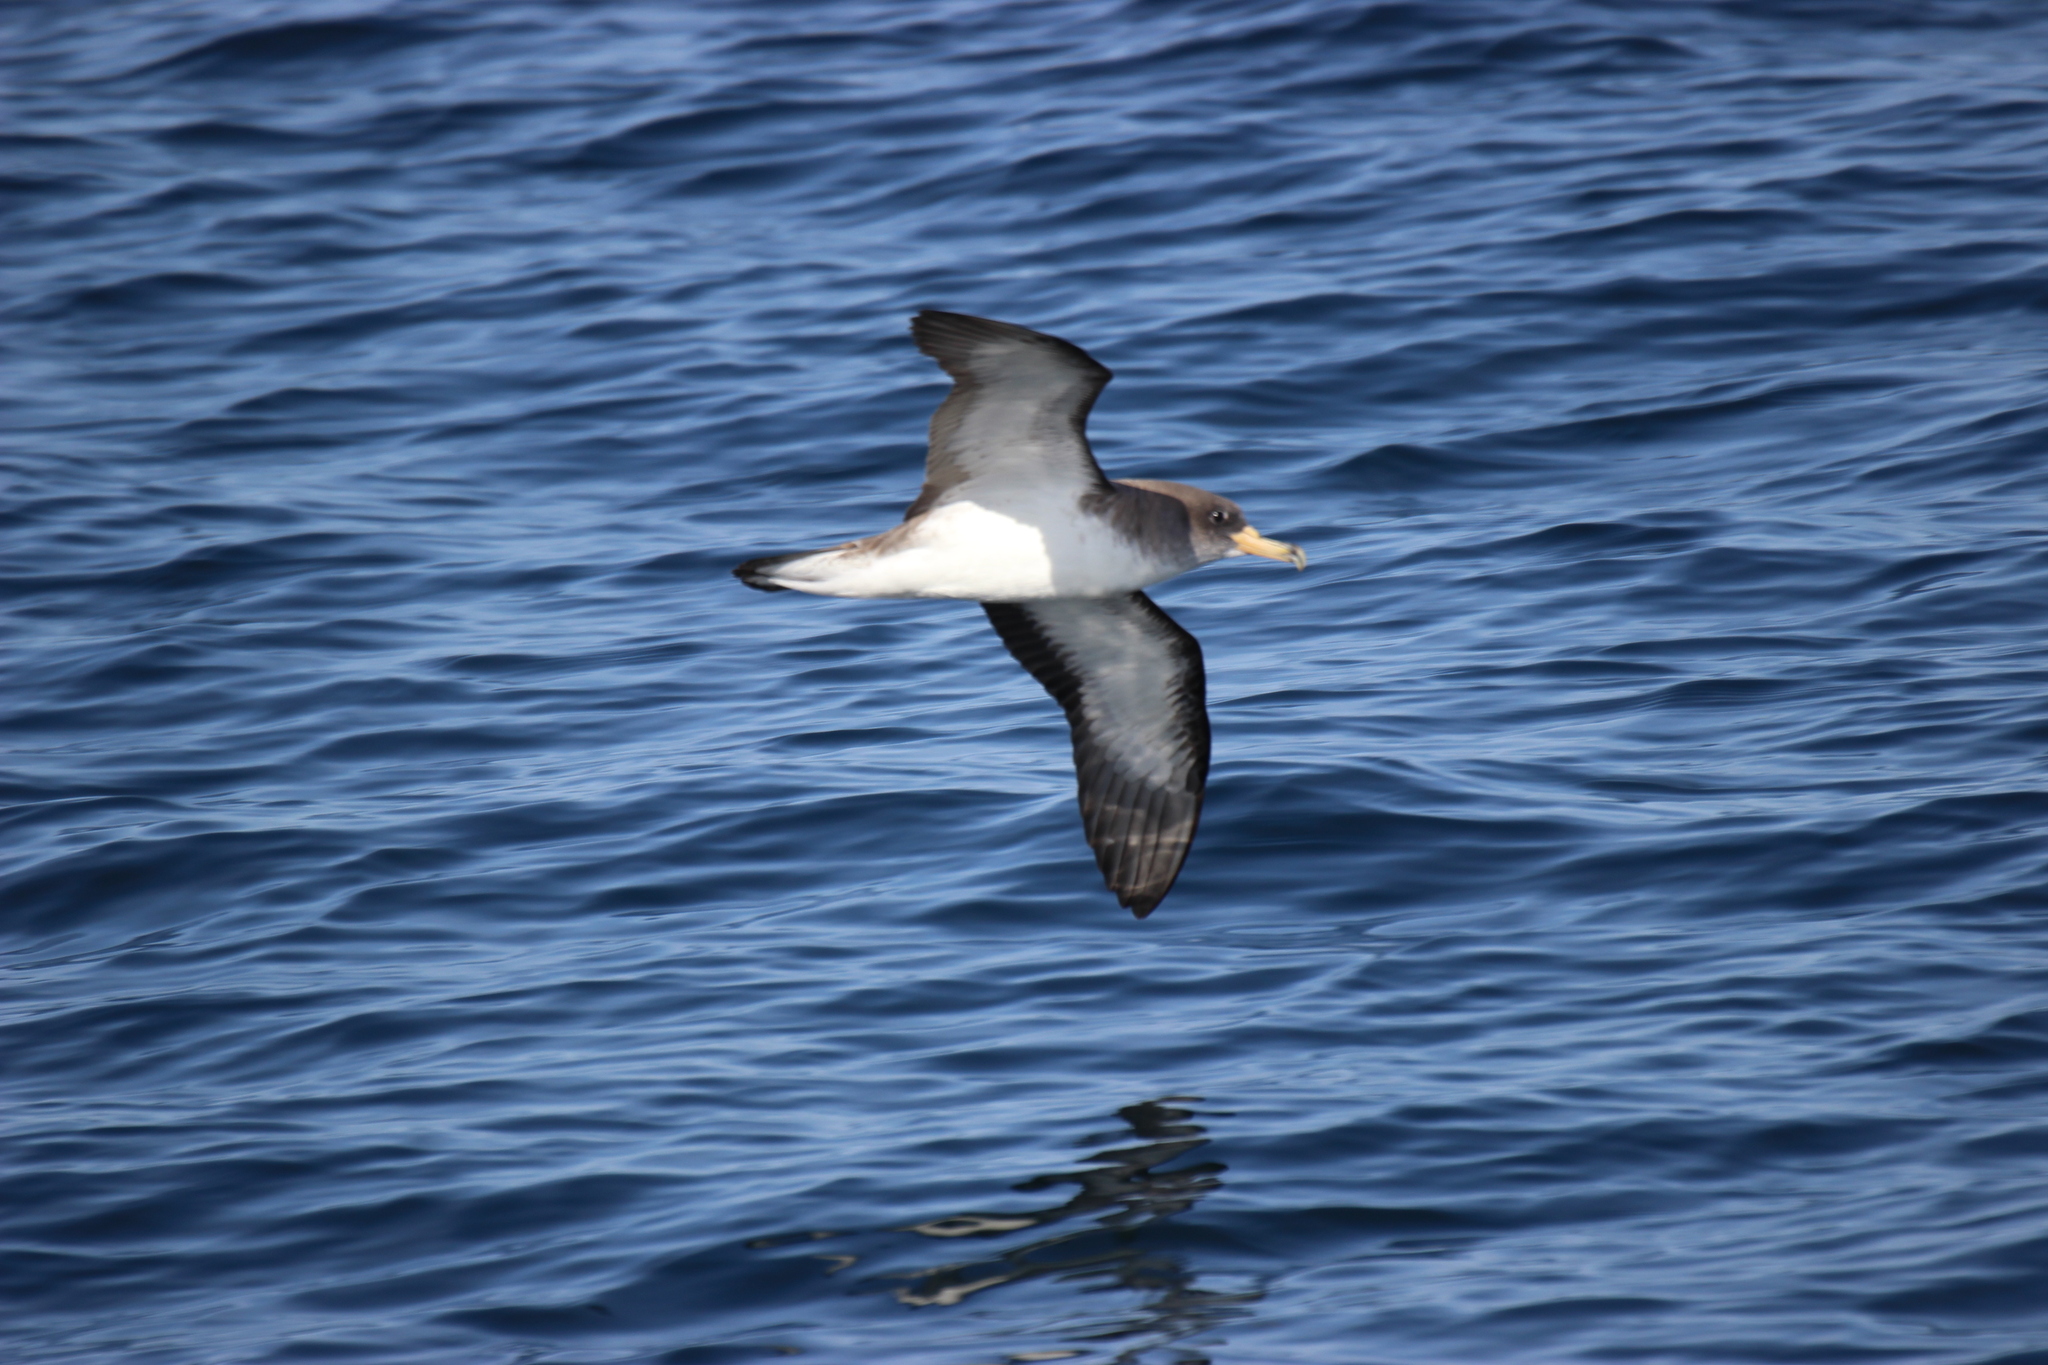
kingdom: Animalia
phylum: Chordata
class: Aves
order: Procellariiformes
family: Procellariidae
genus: Calonectris
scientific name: Calonectris diomedea
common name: Cory's shearwater
